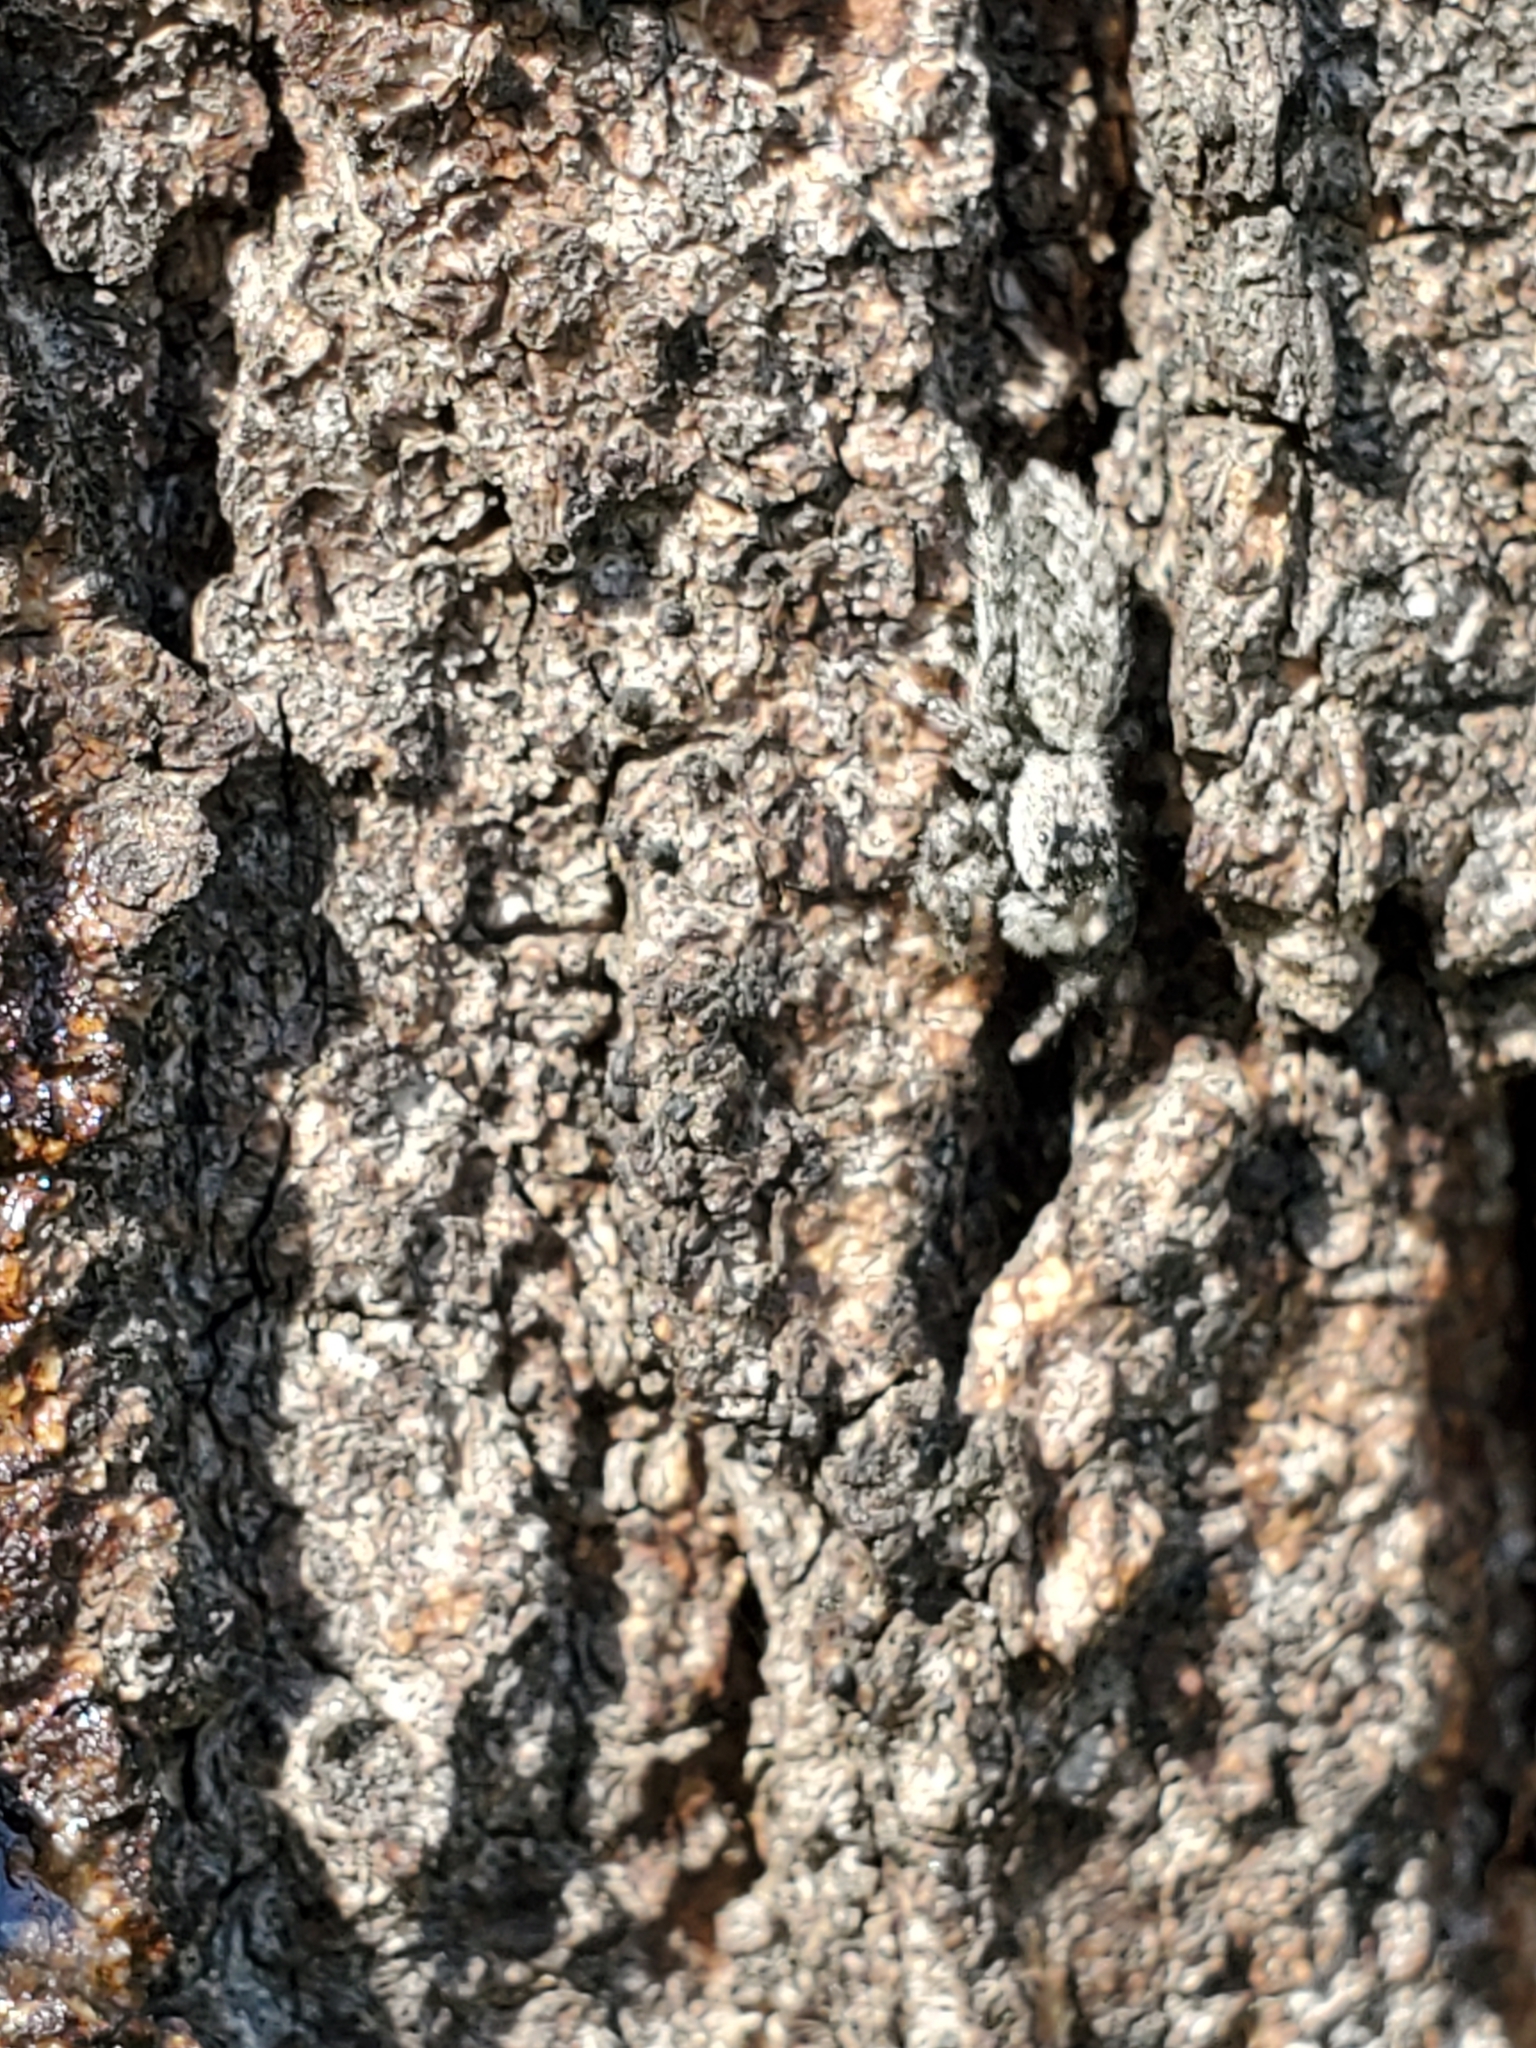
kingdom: Animalia
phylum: Arthropoda
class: Arachnida
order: Araneae
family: Salticidae
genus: Platycryptus
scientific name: Platycryptus undatus
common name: Tan jumping spider
